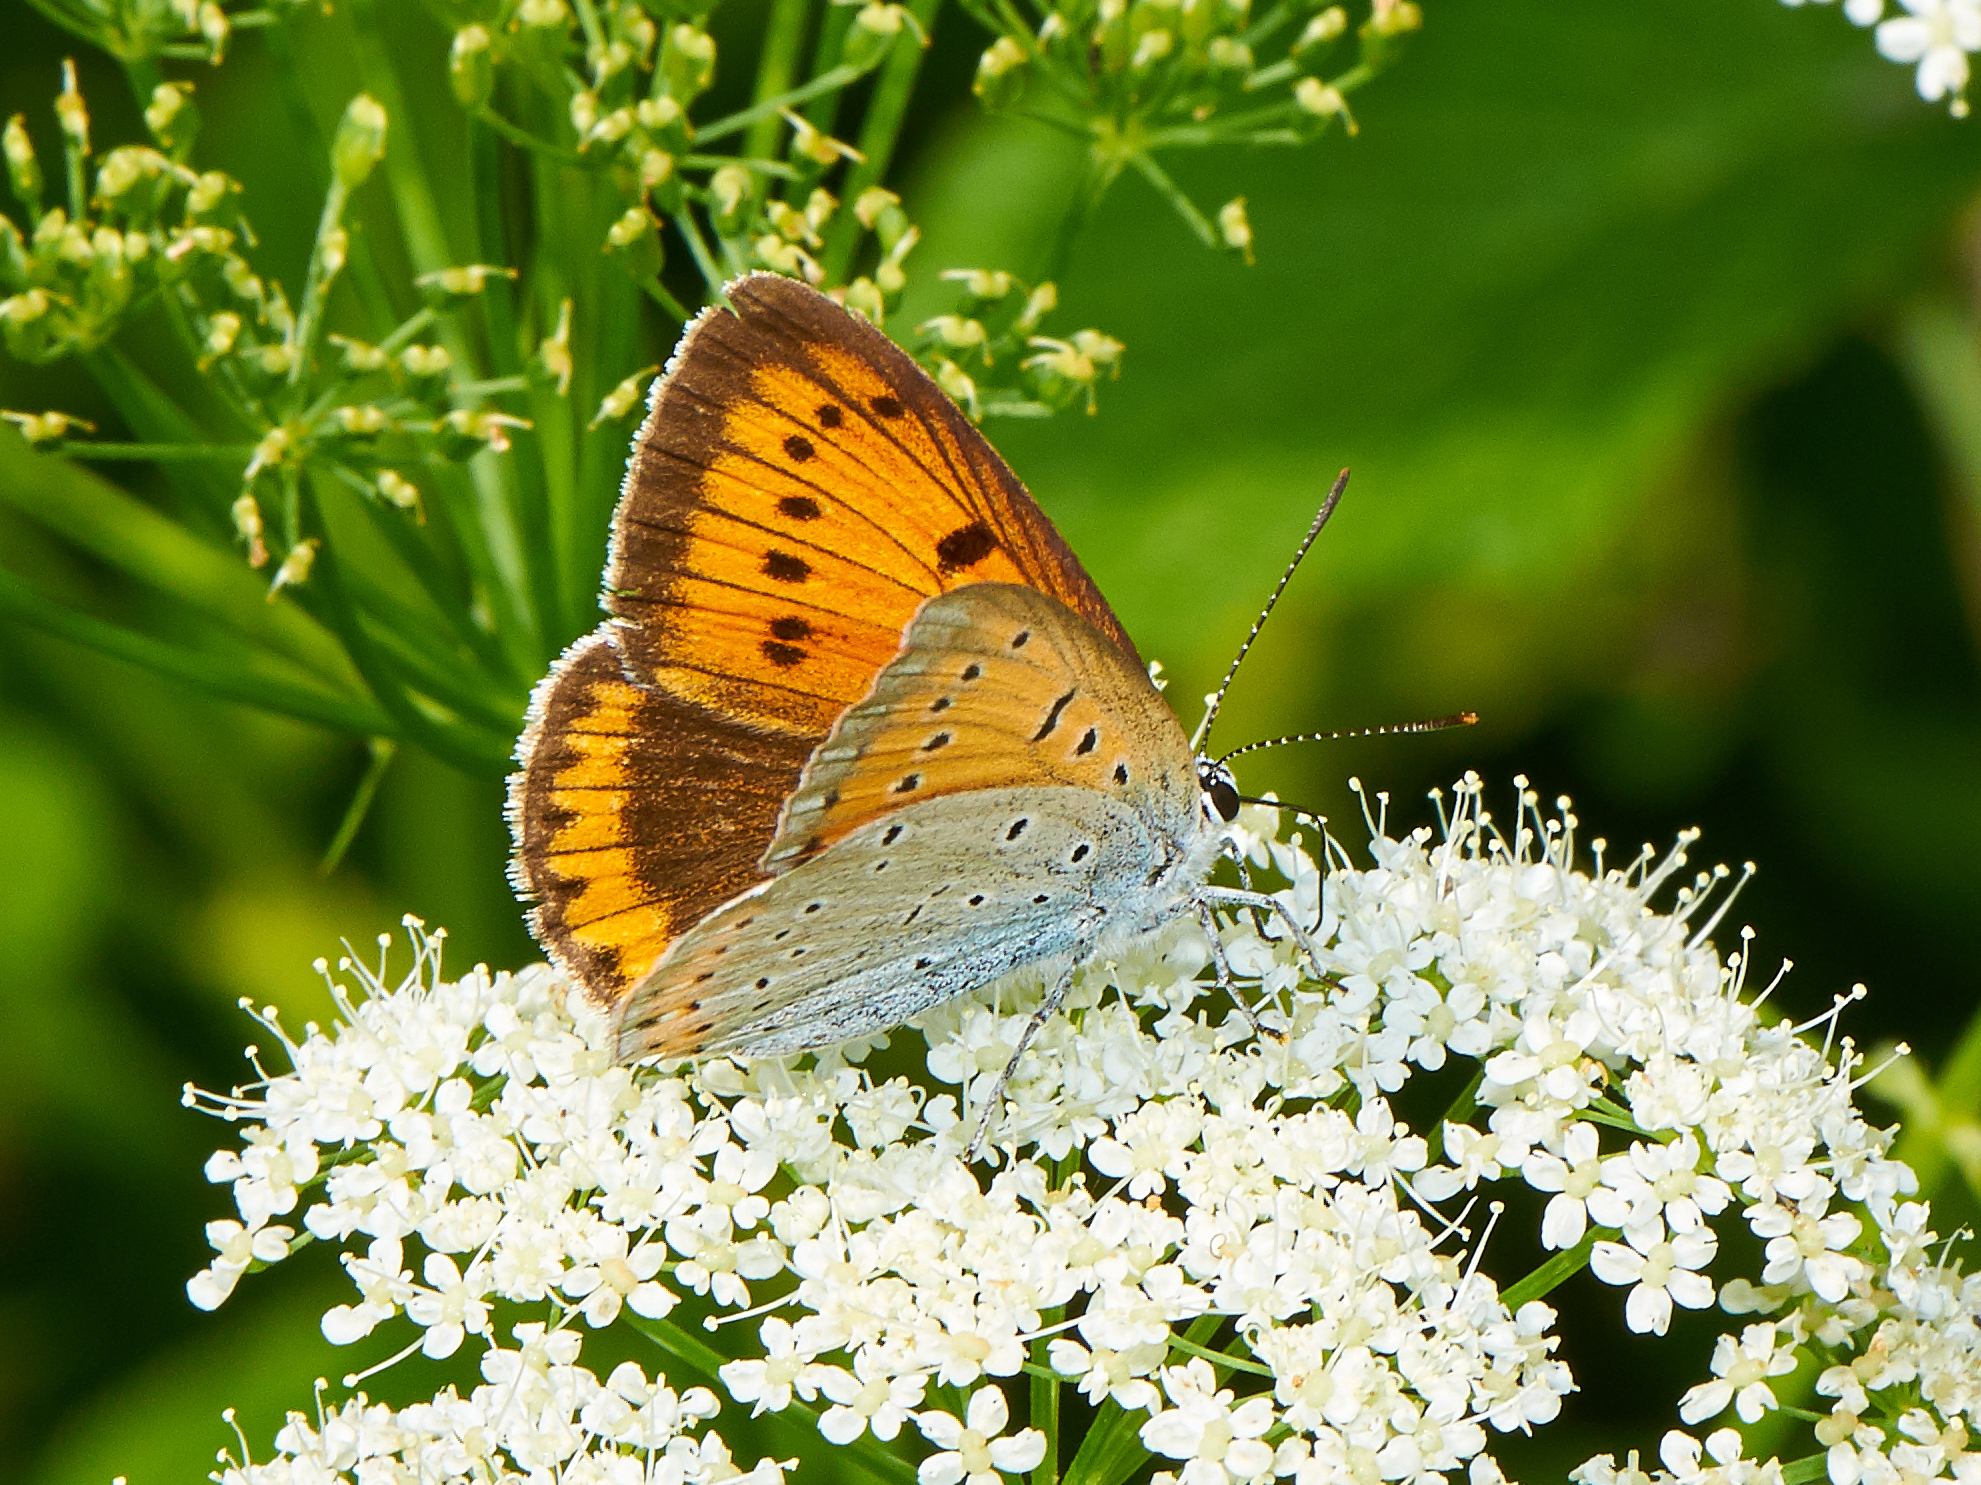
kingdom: Animalia
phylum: Arthropoda
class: Insecta
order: Lepidoptera
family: Lycaenidae
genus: Lycaena
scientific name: Lycaena dispar
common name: Large copper
